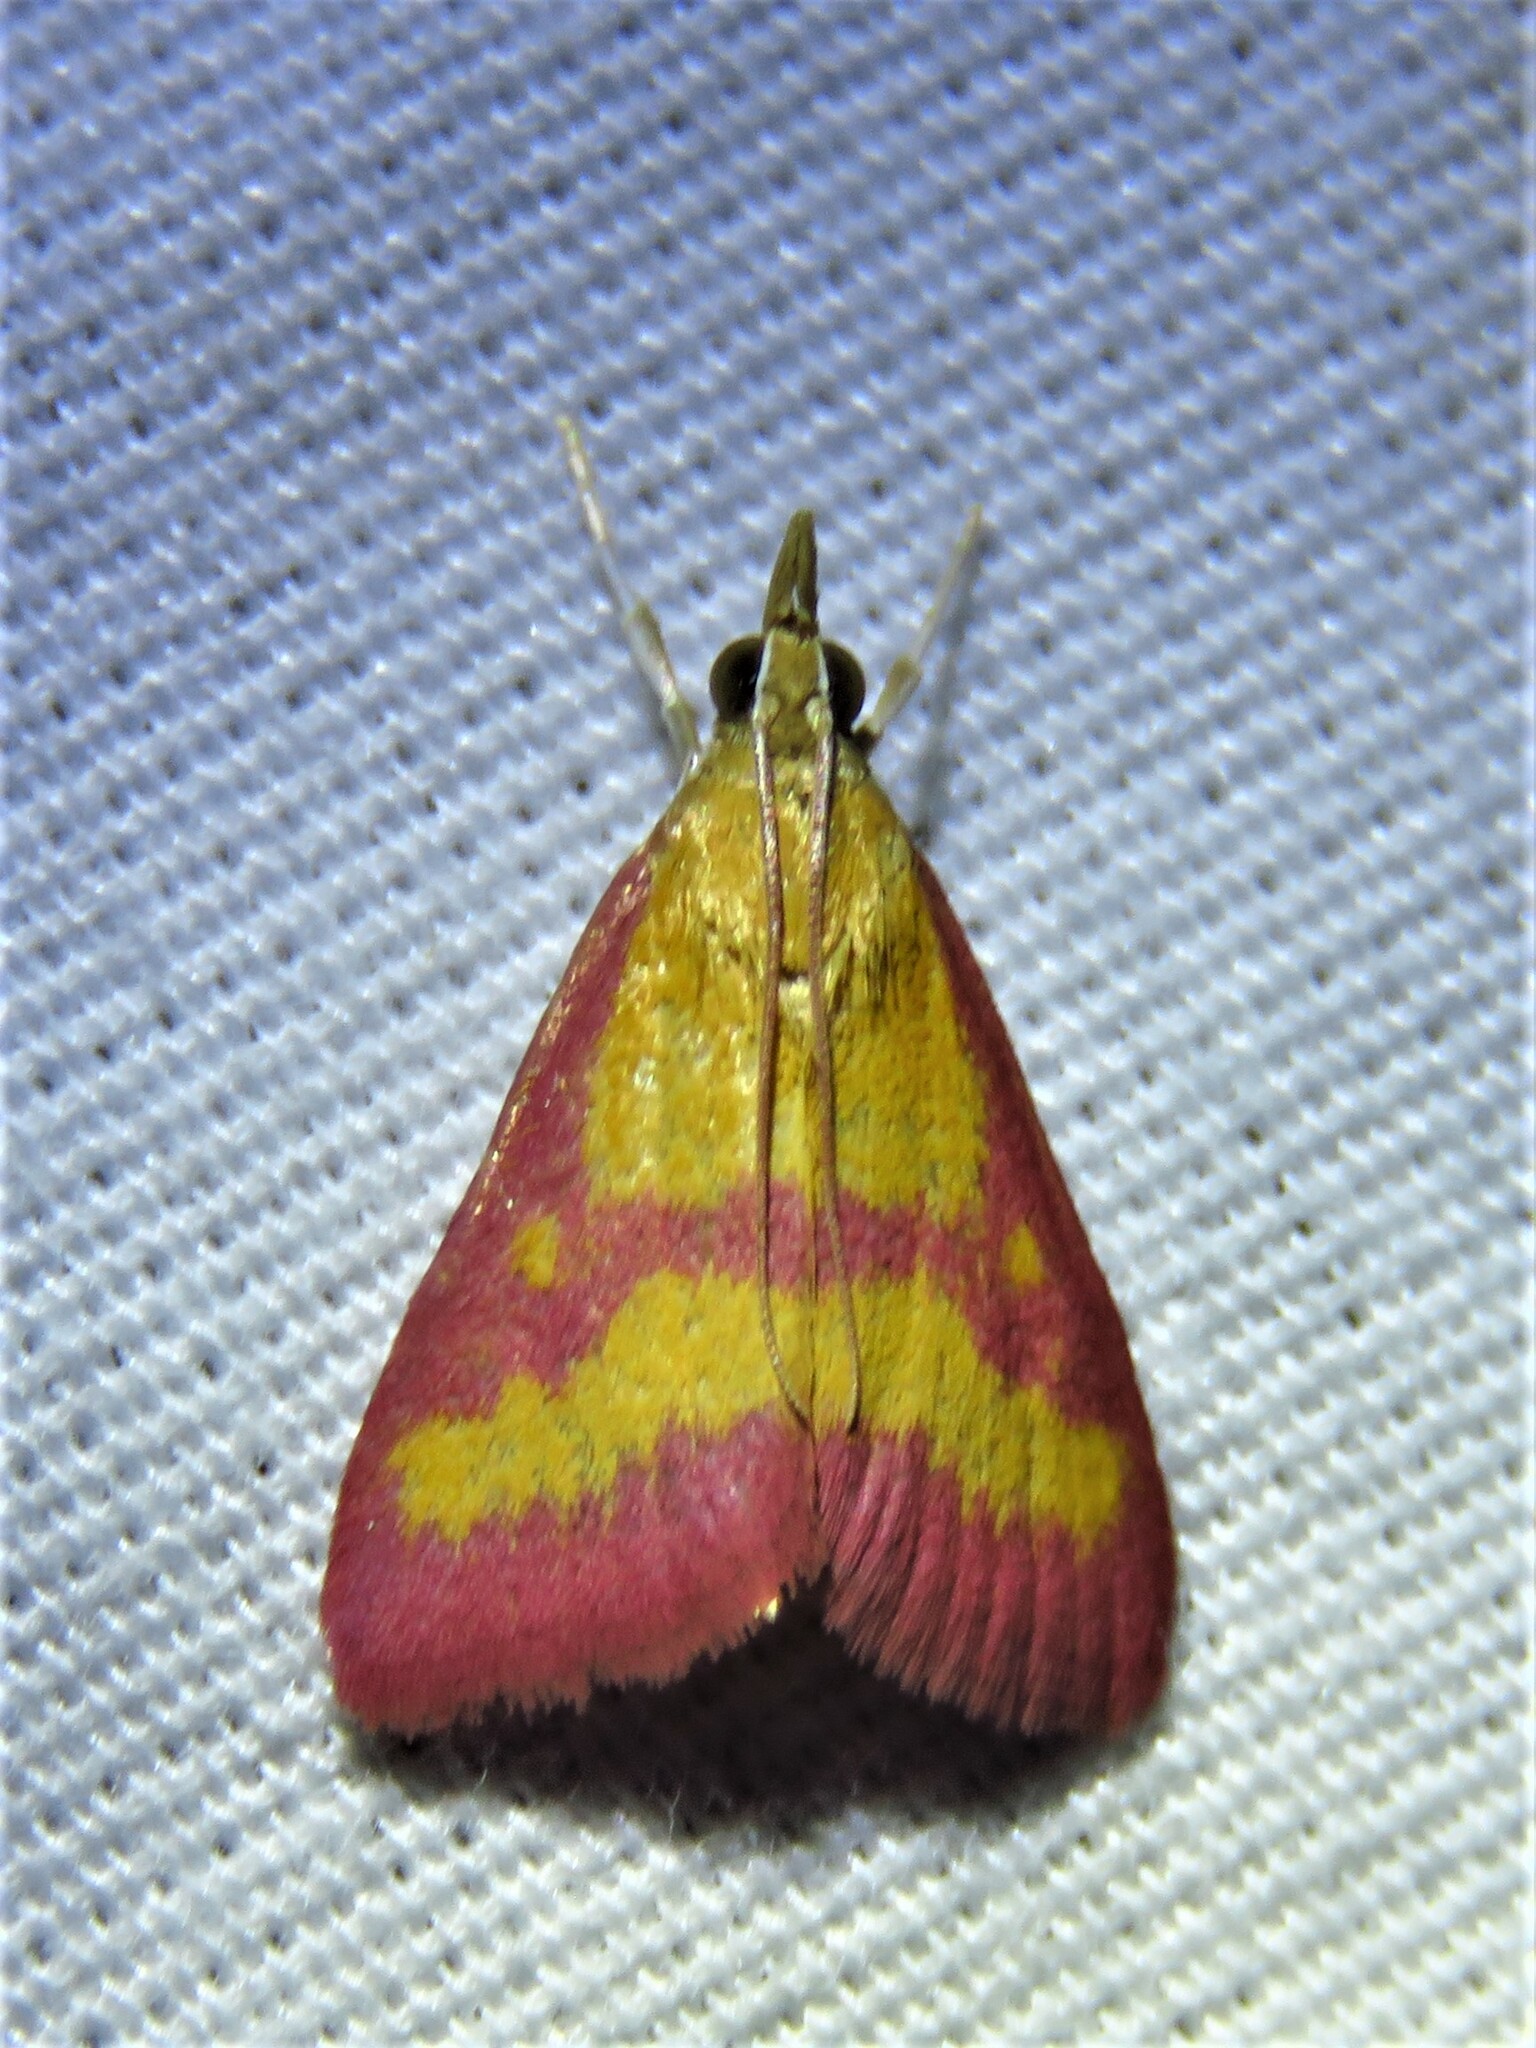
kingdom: Animalia
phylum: Arthropoda
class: Insecta
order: Lepidoptera
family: Crambidae
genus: Pyrausta
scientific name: Pyrausta laticlavia
